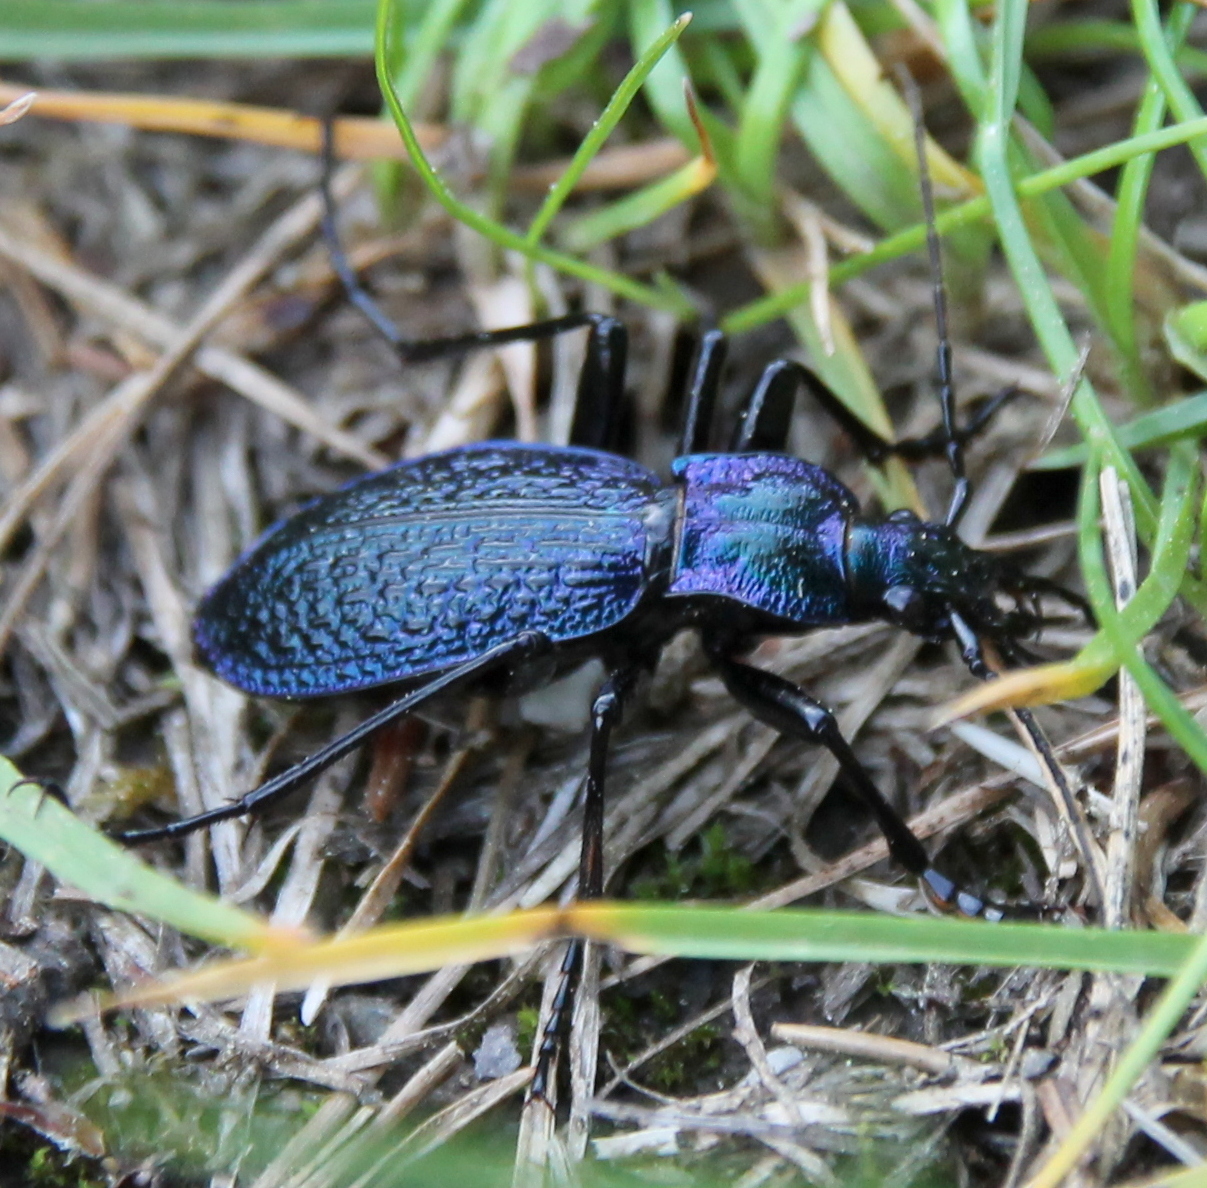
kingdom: Animalia
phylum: Arthropoda
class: Insecta
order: Coleoptera
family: Carabidae
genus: Carabus
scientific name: Carabus intricatus
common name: Blue ground beetle
